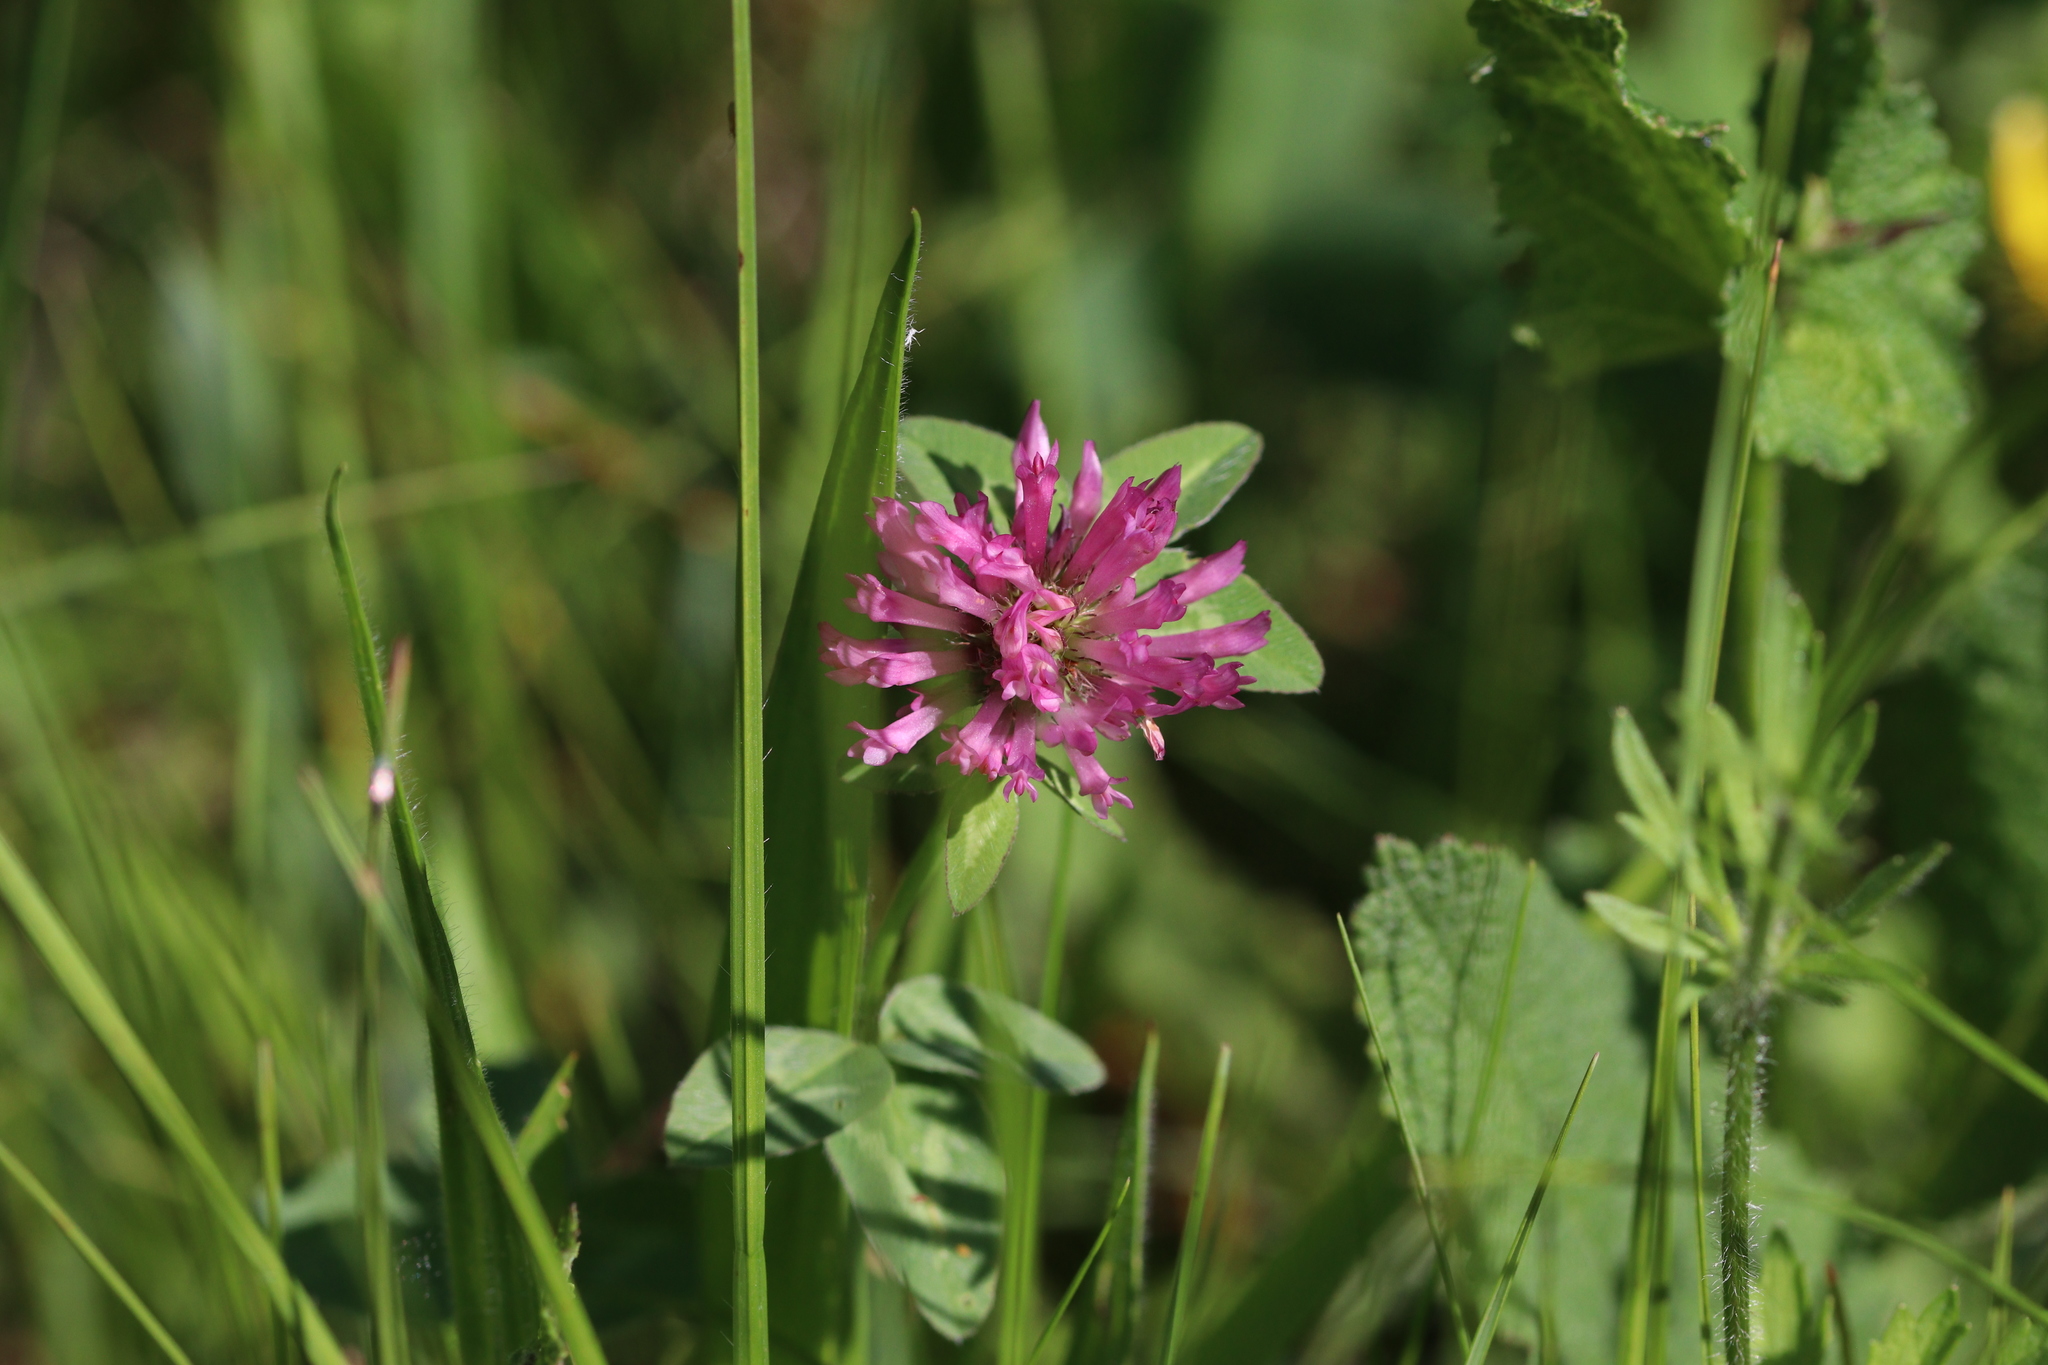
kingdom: Plantae
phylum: Tracheophyta
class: Magnoliopsida
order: Fabales
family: Fabaceae
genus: Trifolium
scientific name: Trifolium pratense
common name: Red clover
